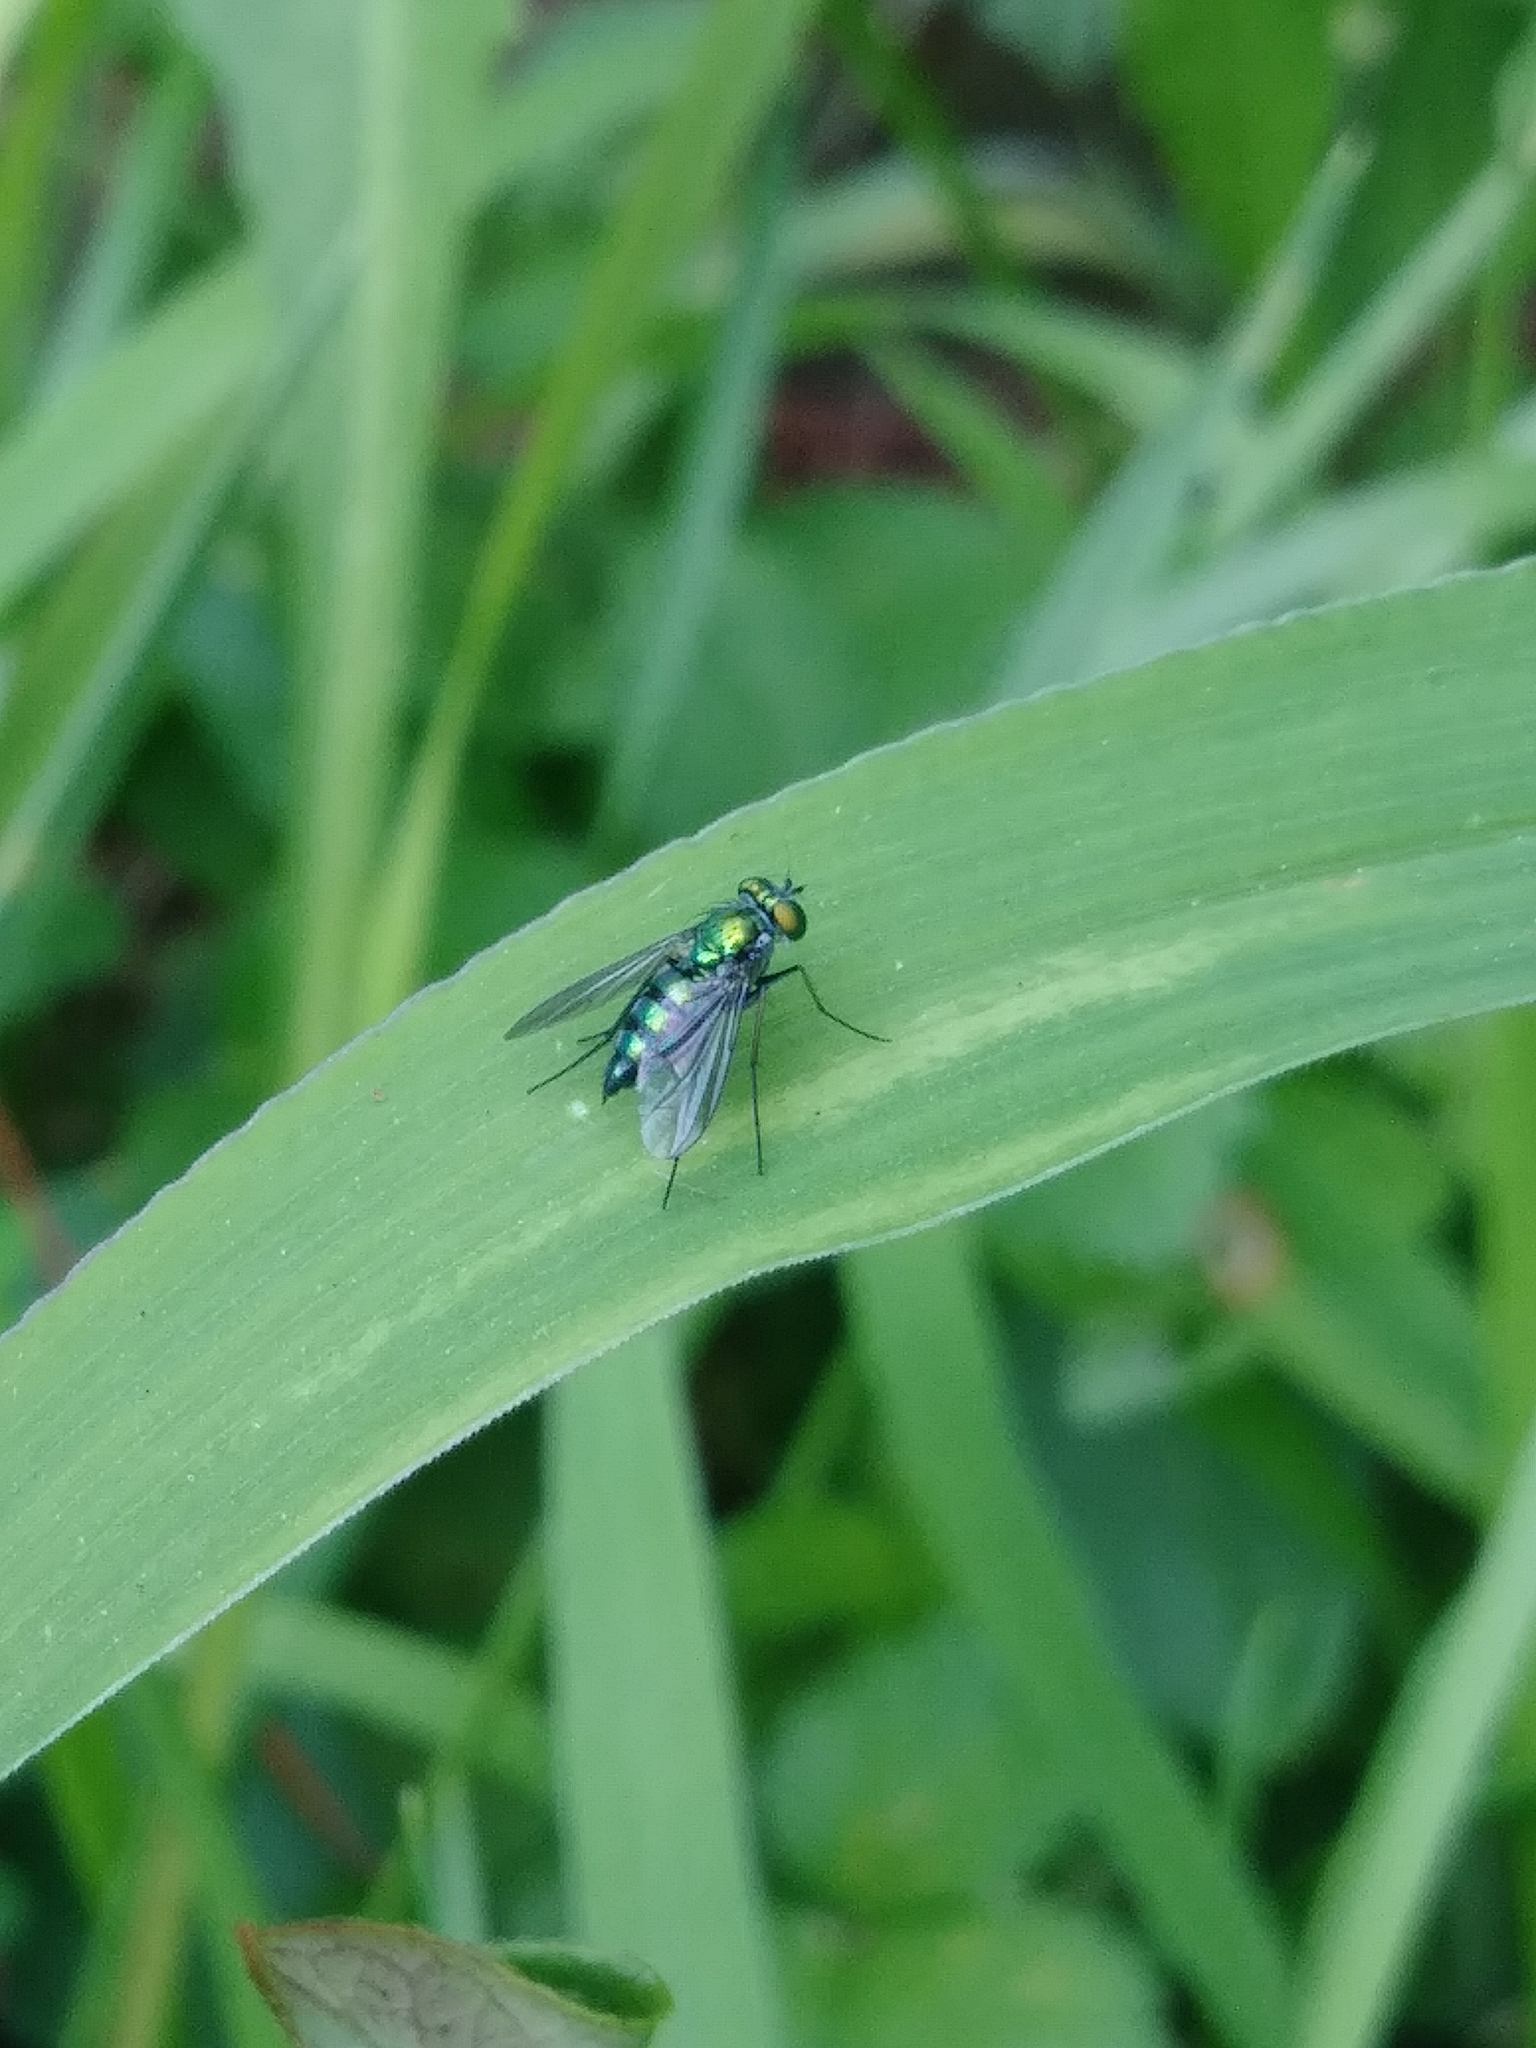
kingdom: Animalia
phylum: Arthropoda
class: Insecta
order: Diptera
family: Dolichopodidae
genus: Condylostylus
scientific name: Condylostylus longicornis
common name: Long-legged fly
